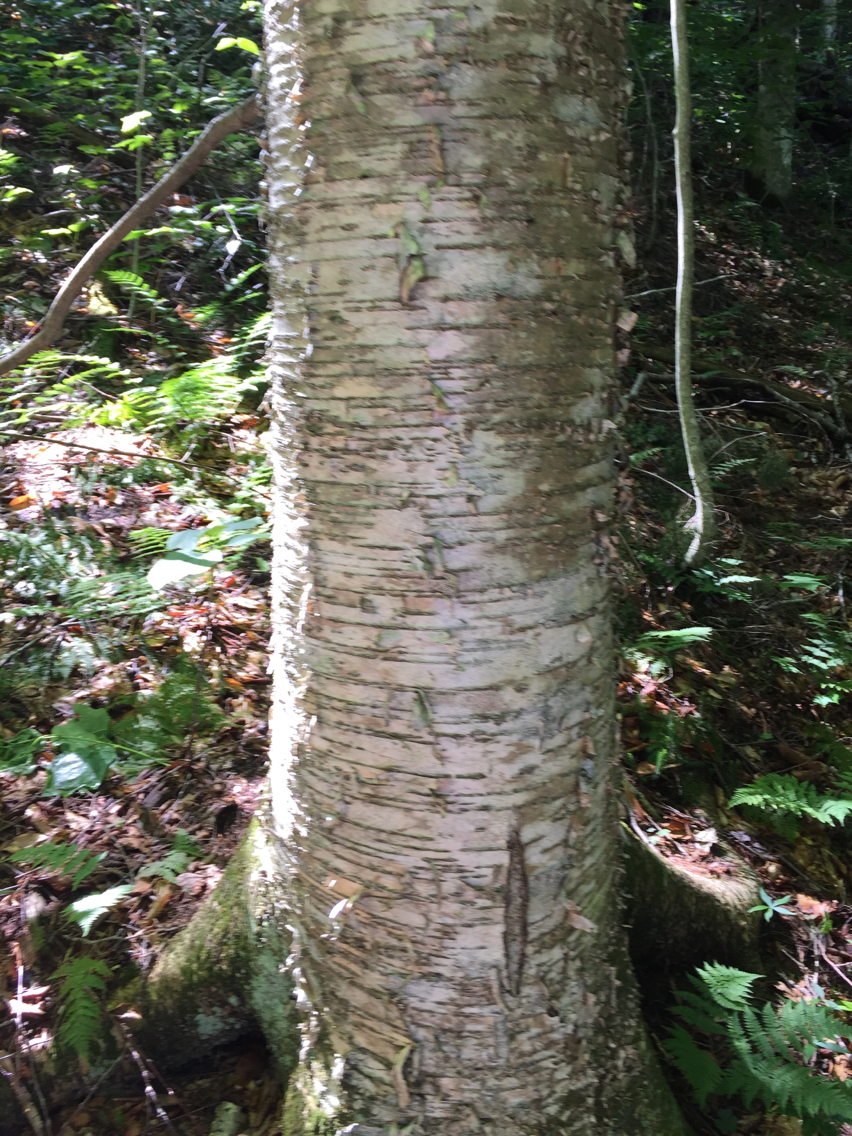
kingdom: Plantae
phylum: Tracheophyta
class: Magnoliopsida
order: Fagales
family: Betulaceae
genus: Betula
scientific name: Betula alleghaniensis
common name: Yellow birch
